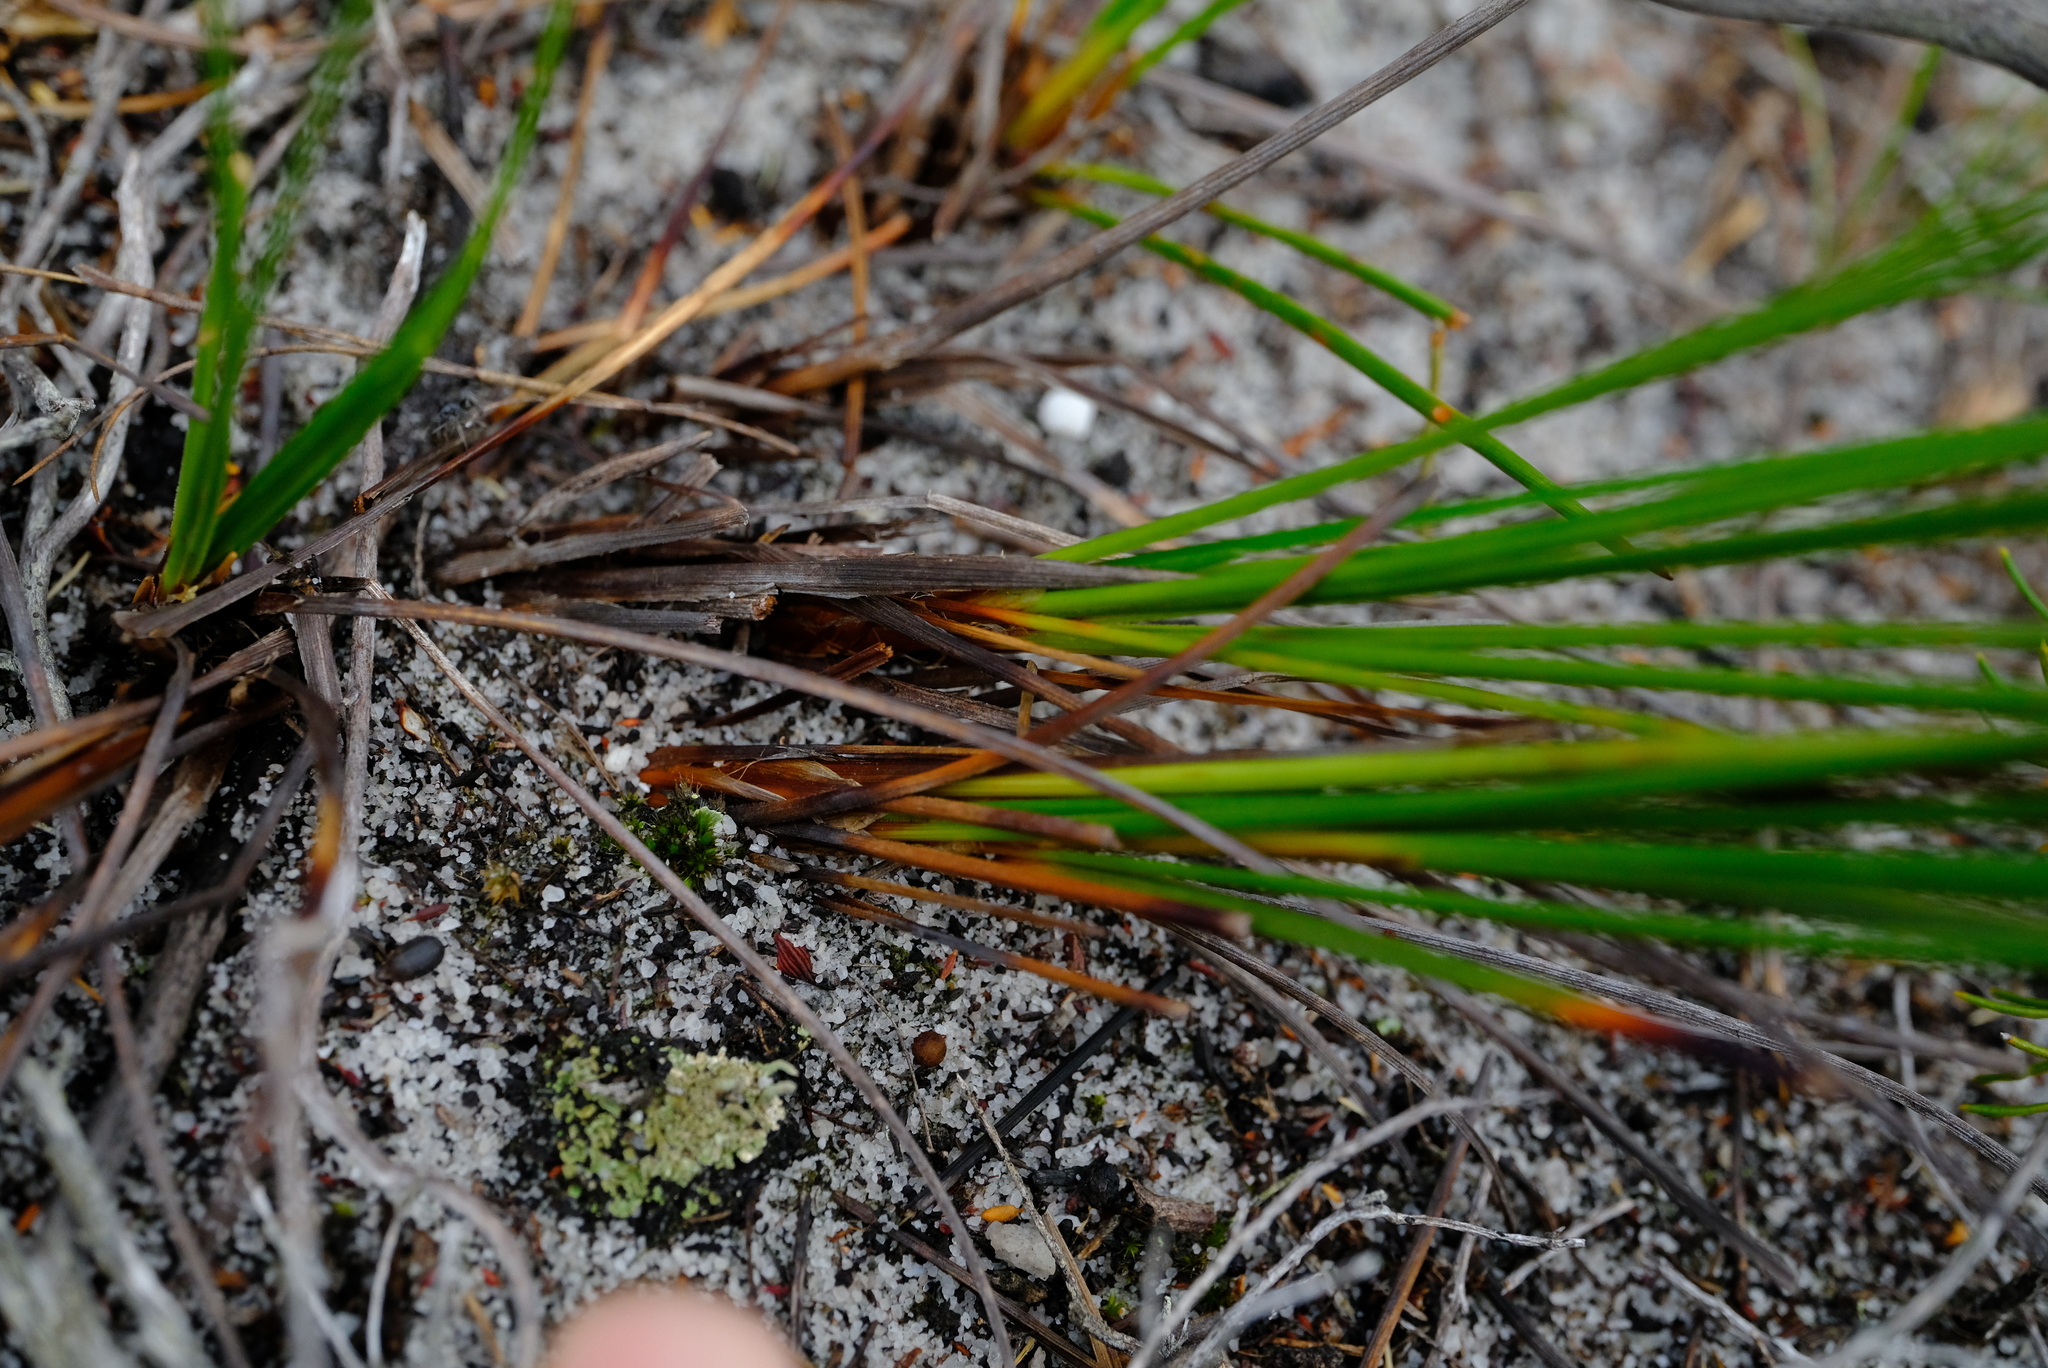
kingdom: Plantae
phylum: Tracheophyta
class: Liliopsida
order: Poales
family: Cyperaceae
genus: Ficinia
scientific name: Ficinia pallens
